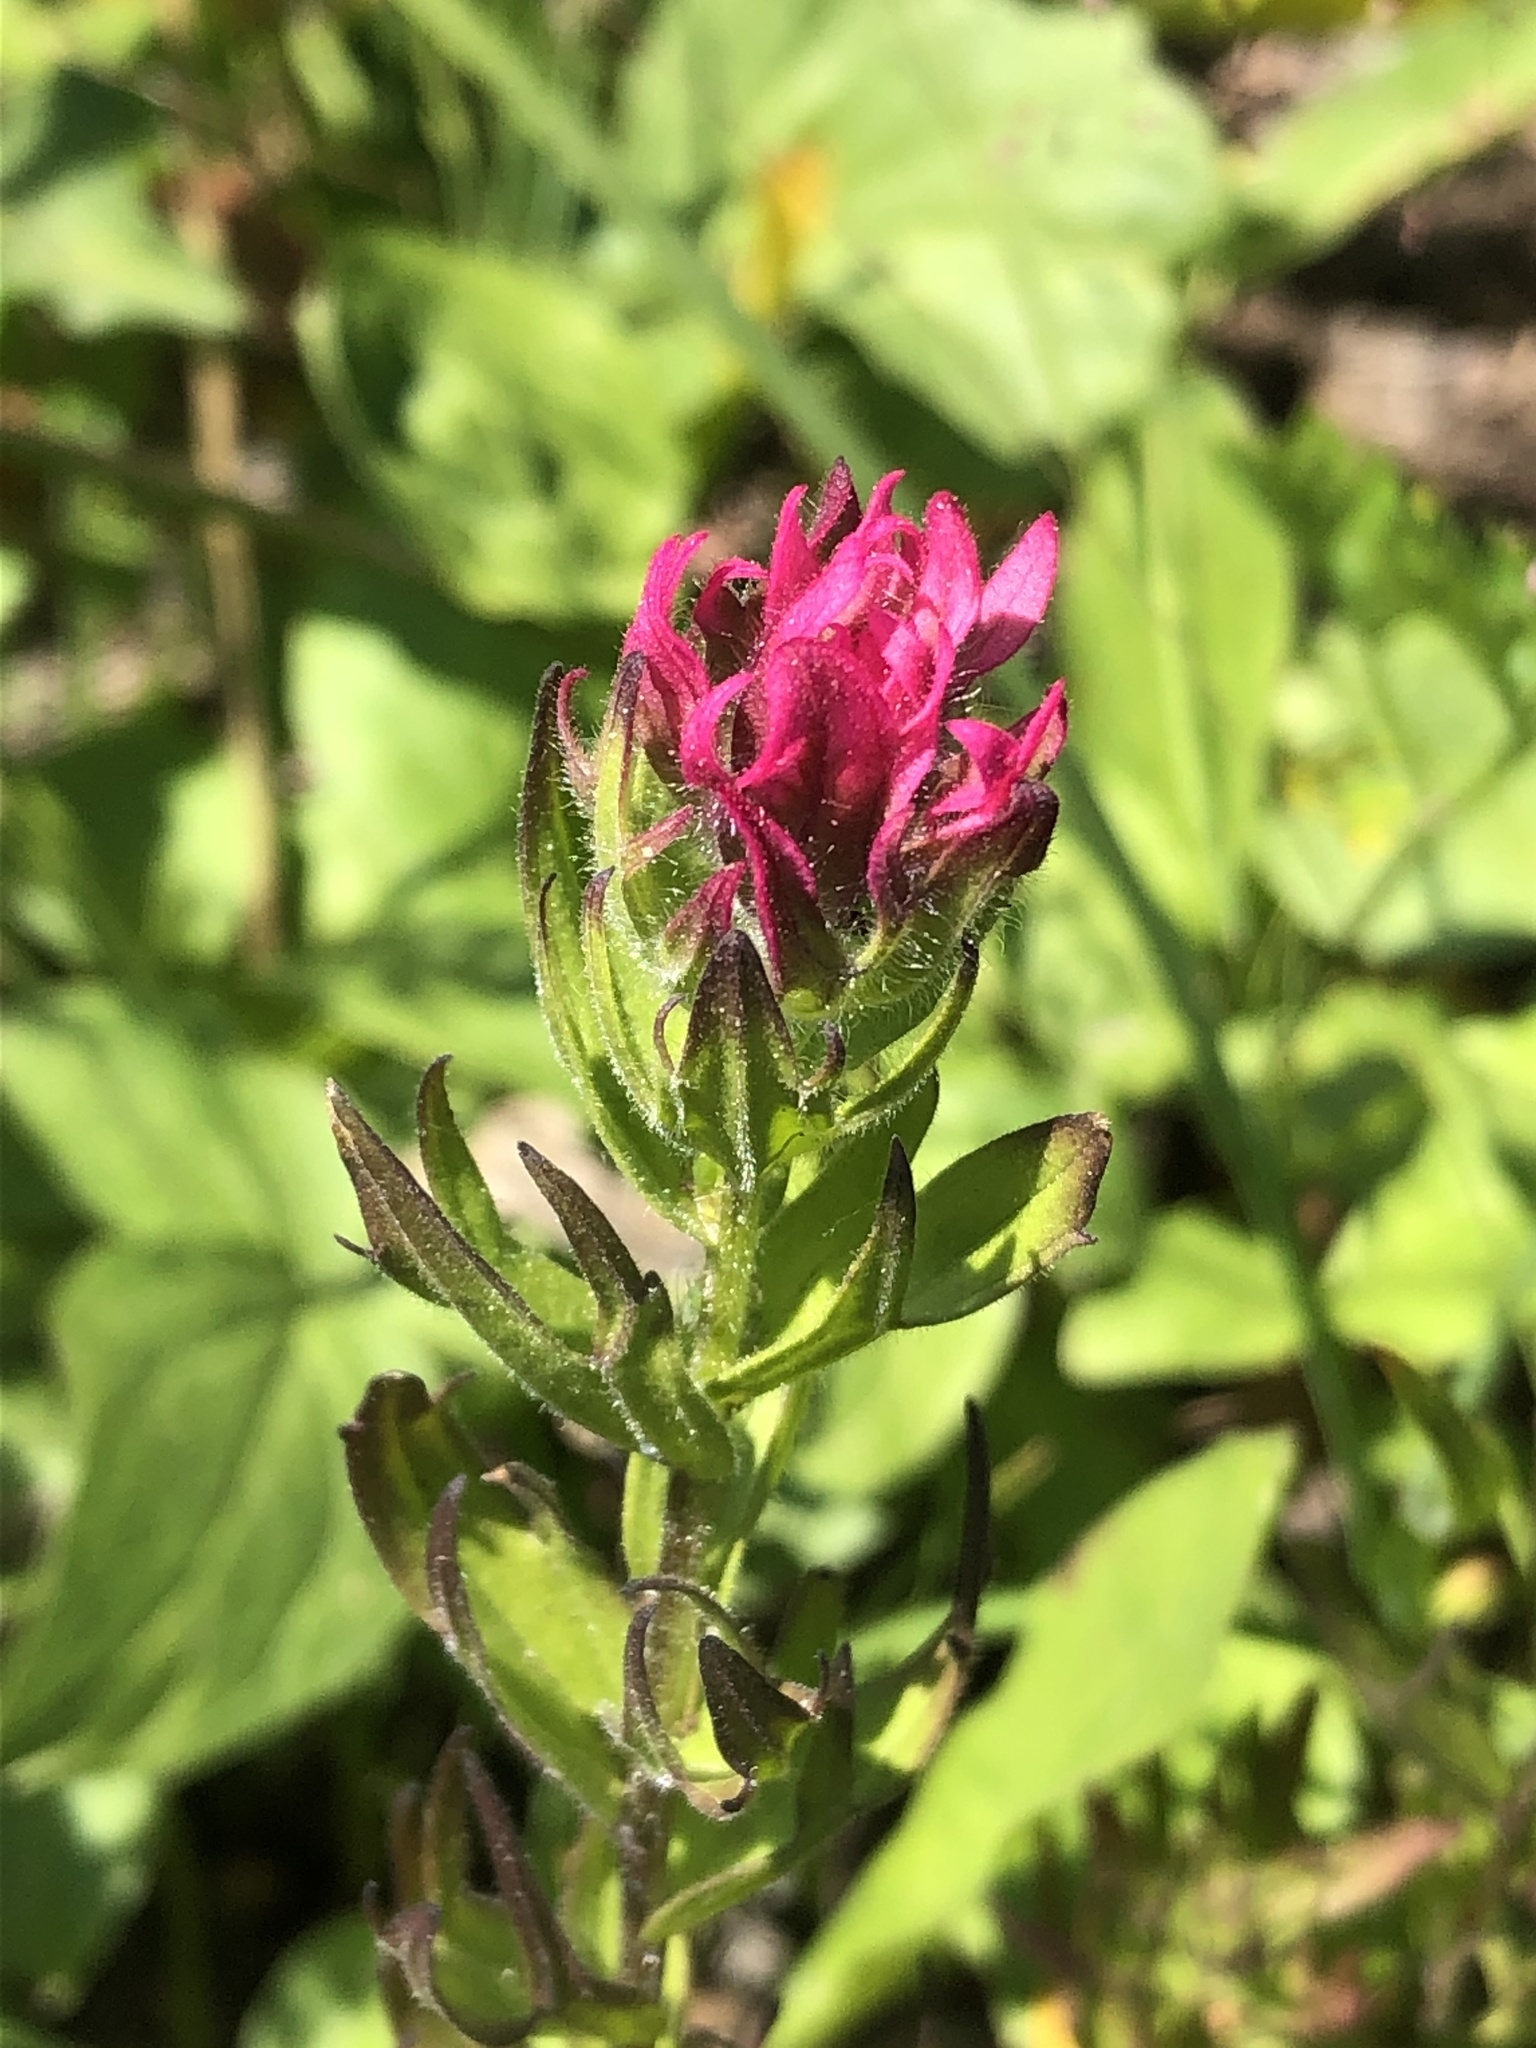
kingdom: Plantae
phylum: Tracheophyta
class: Magnoliopsida
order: Lamiales
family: Orobanchaceae
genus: Castilleja
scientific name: Castilleja parviflora
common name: Mountain paintbrush
